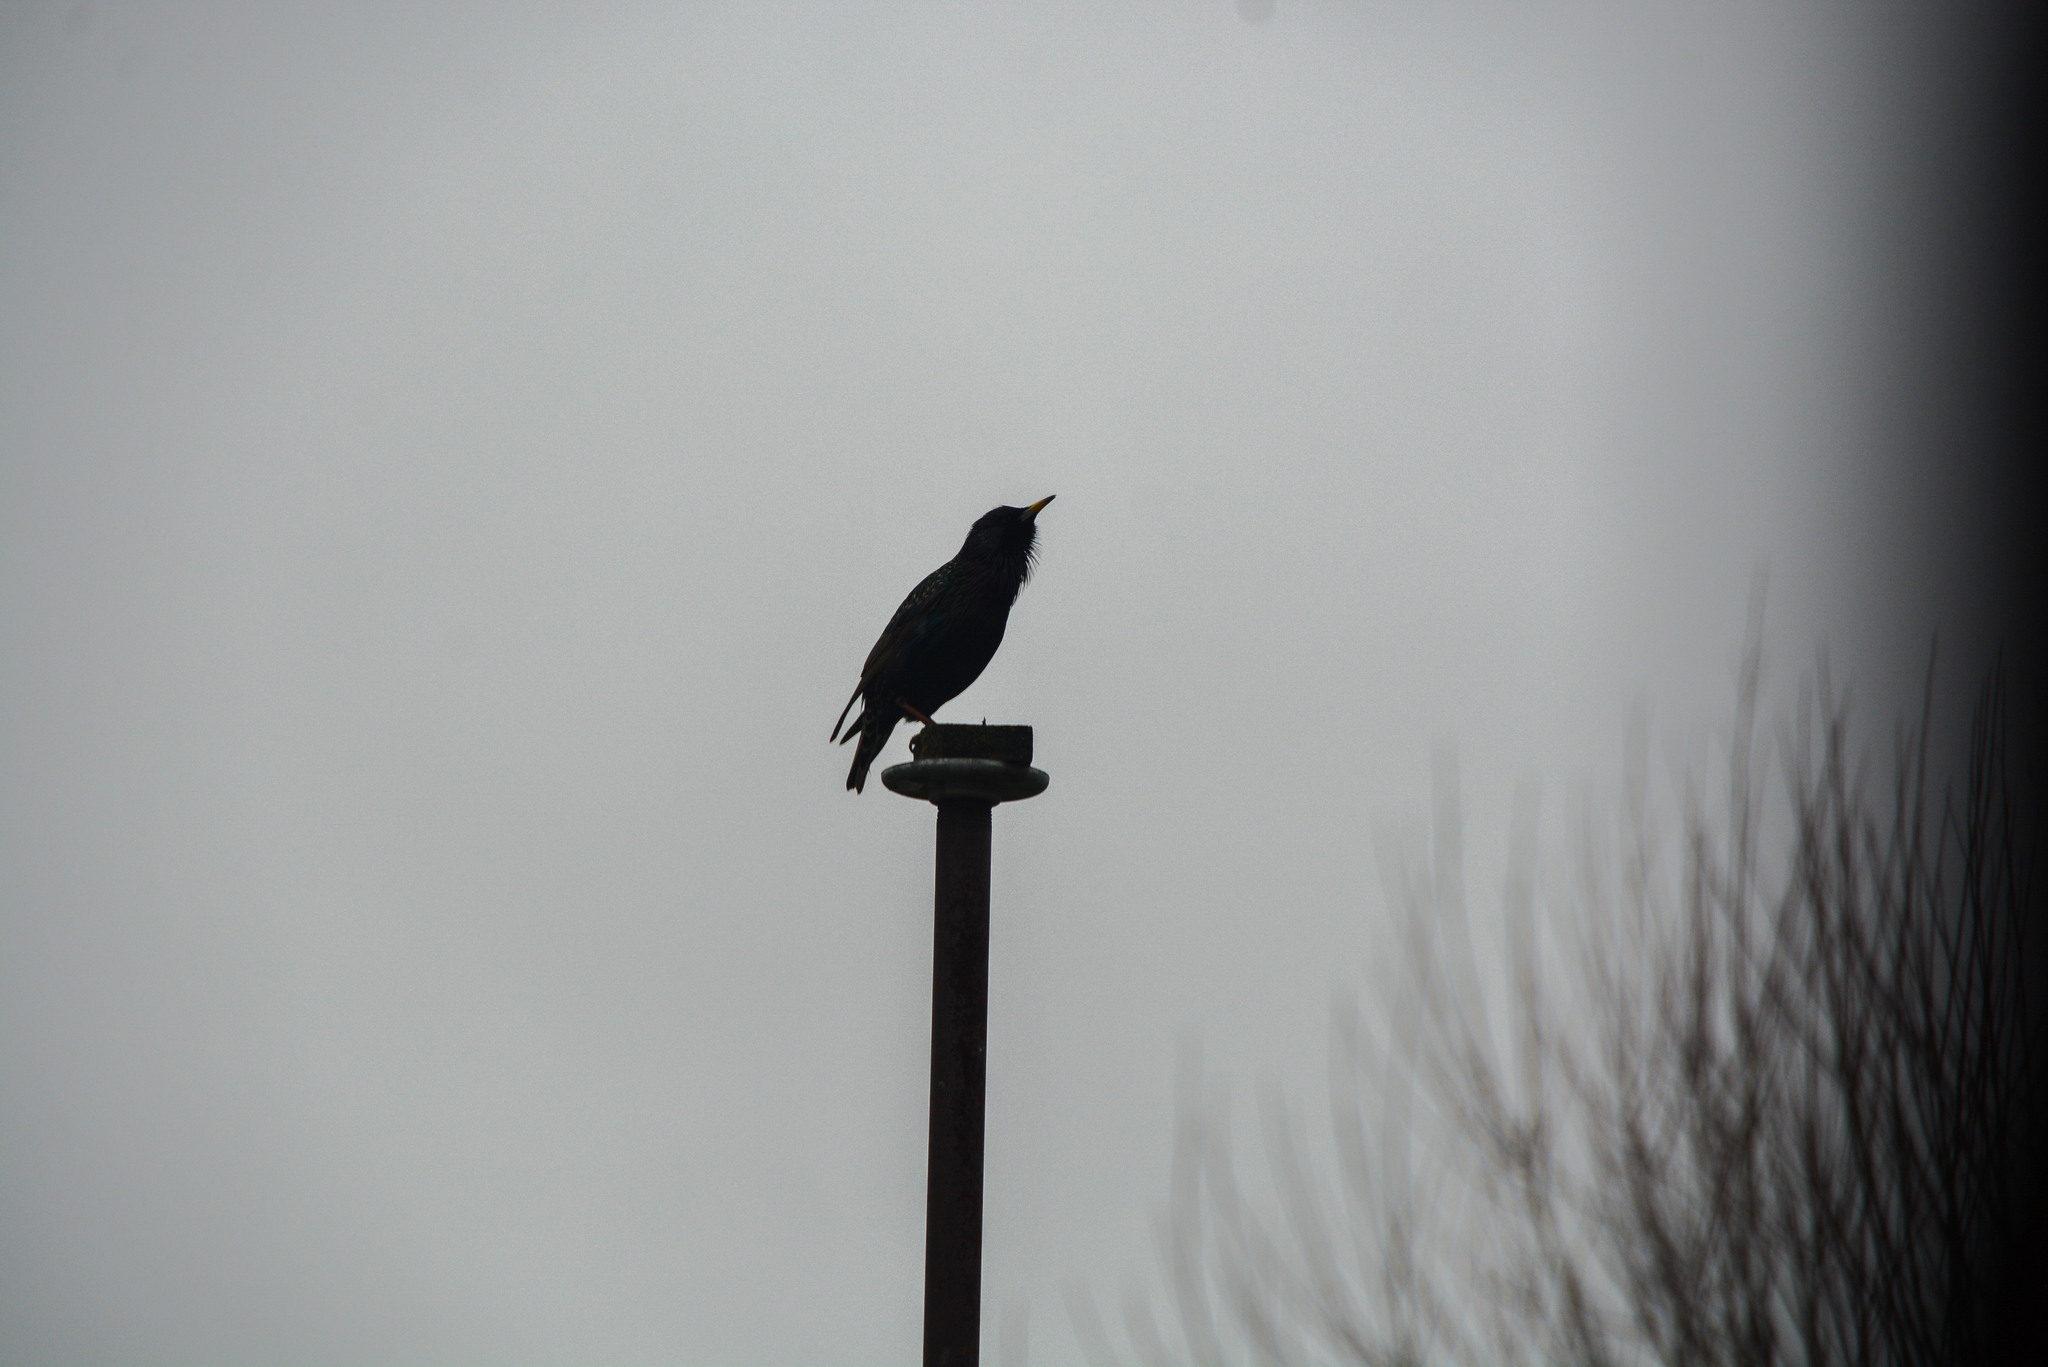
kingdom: Animalia
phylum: Chordata
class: Aves
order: Passeriformes
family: Sturnidae
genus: Sturnus
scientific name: Sturnus vulgaris
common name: Common starling
